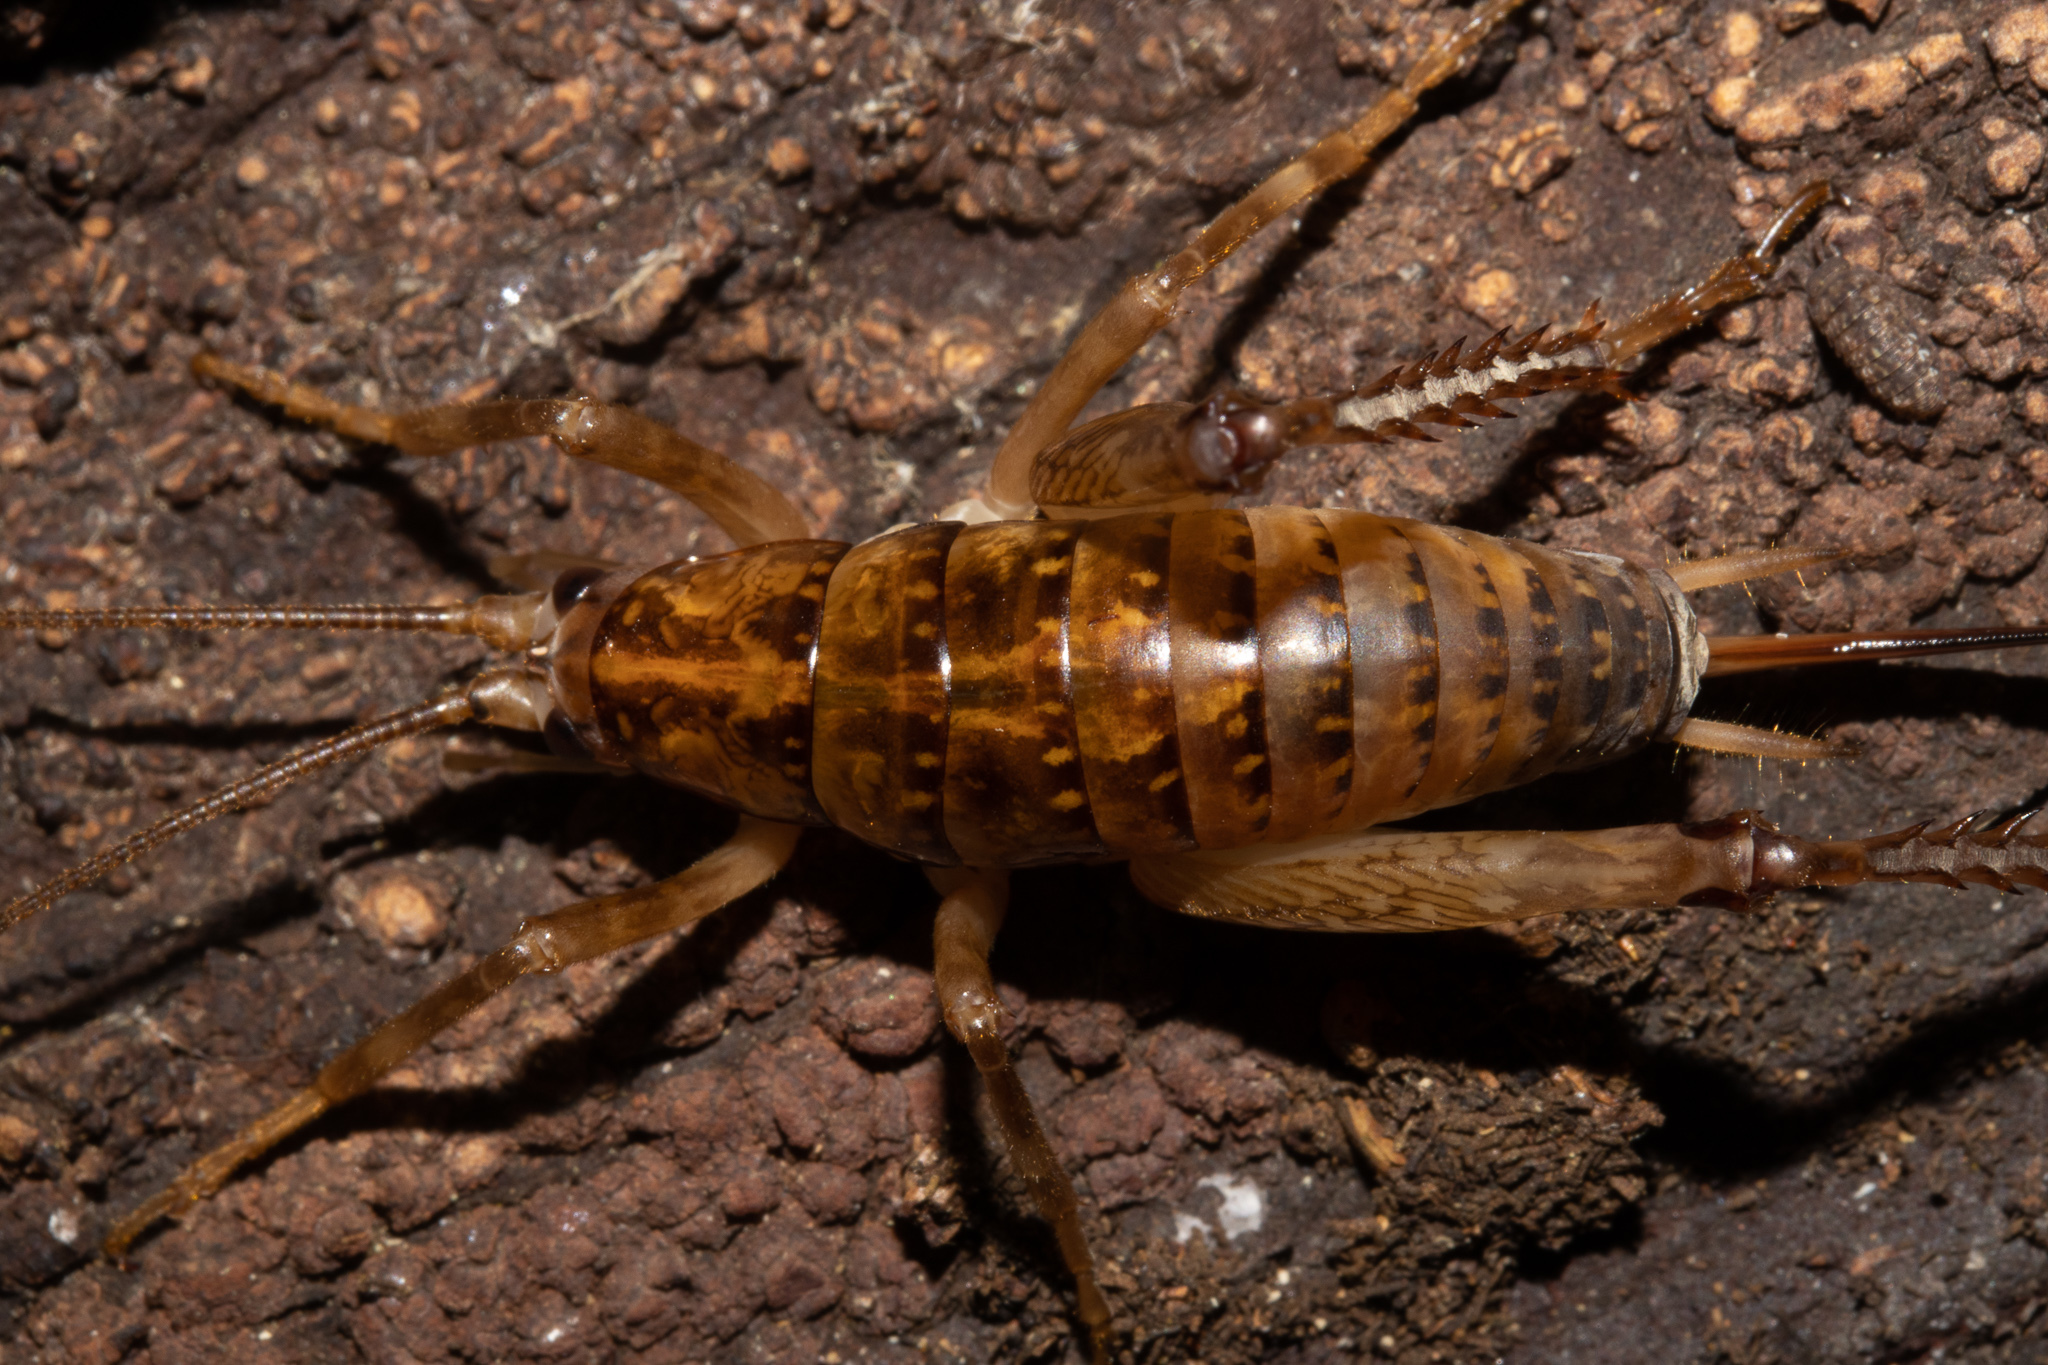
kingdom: Animalia
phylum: Arthropoda
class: Insecta
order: Orthoptera
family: Rhaphidophoridae
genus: Talitropsis
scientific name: Talitropsis sedilloti
